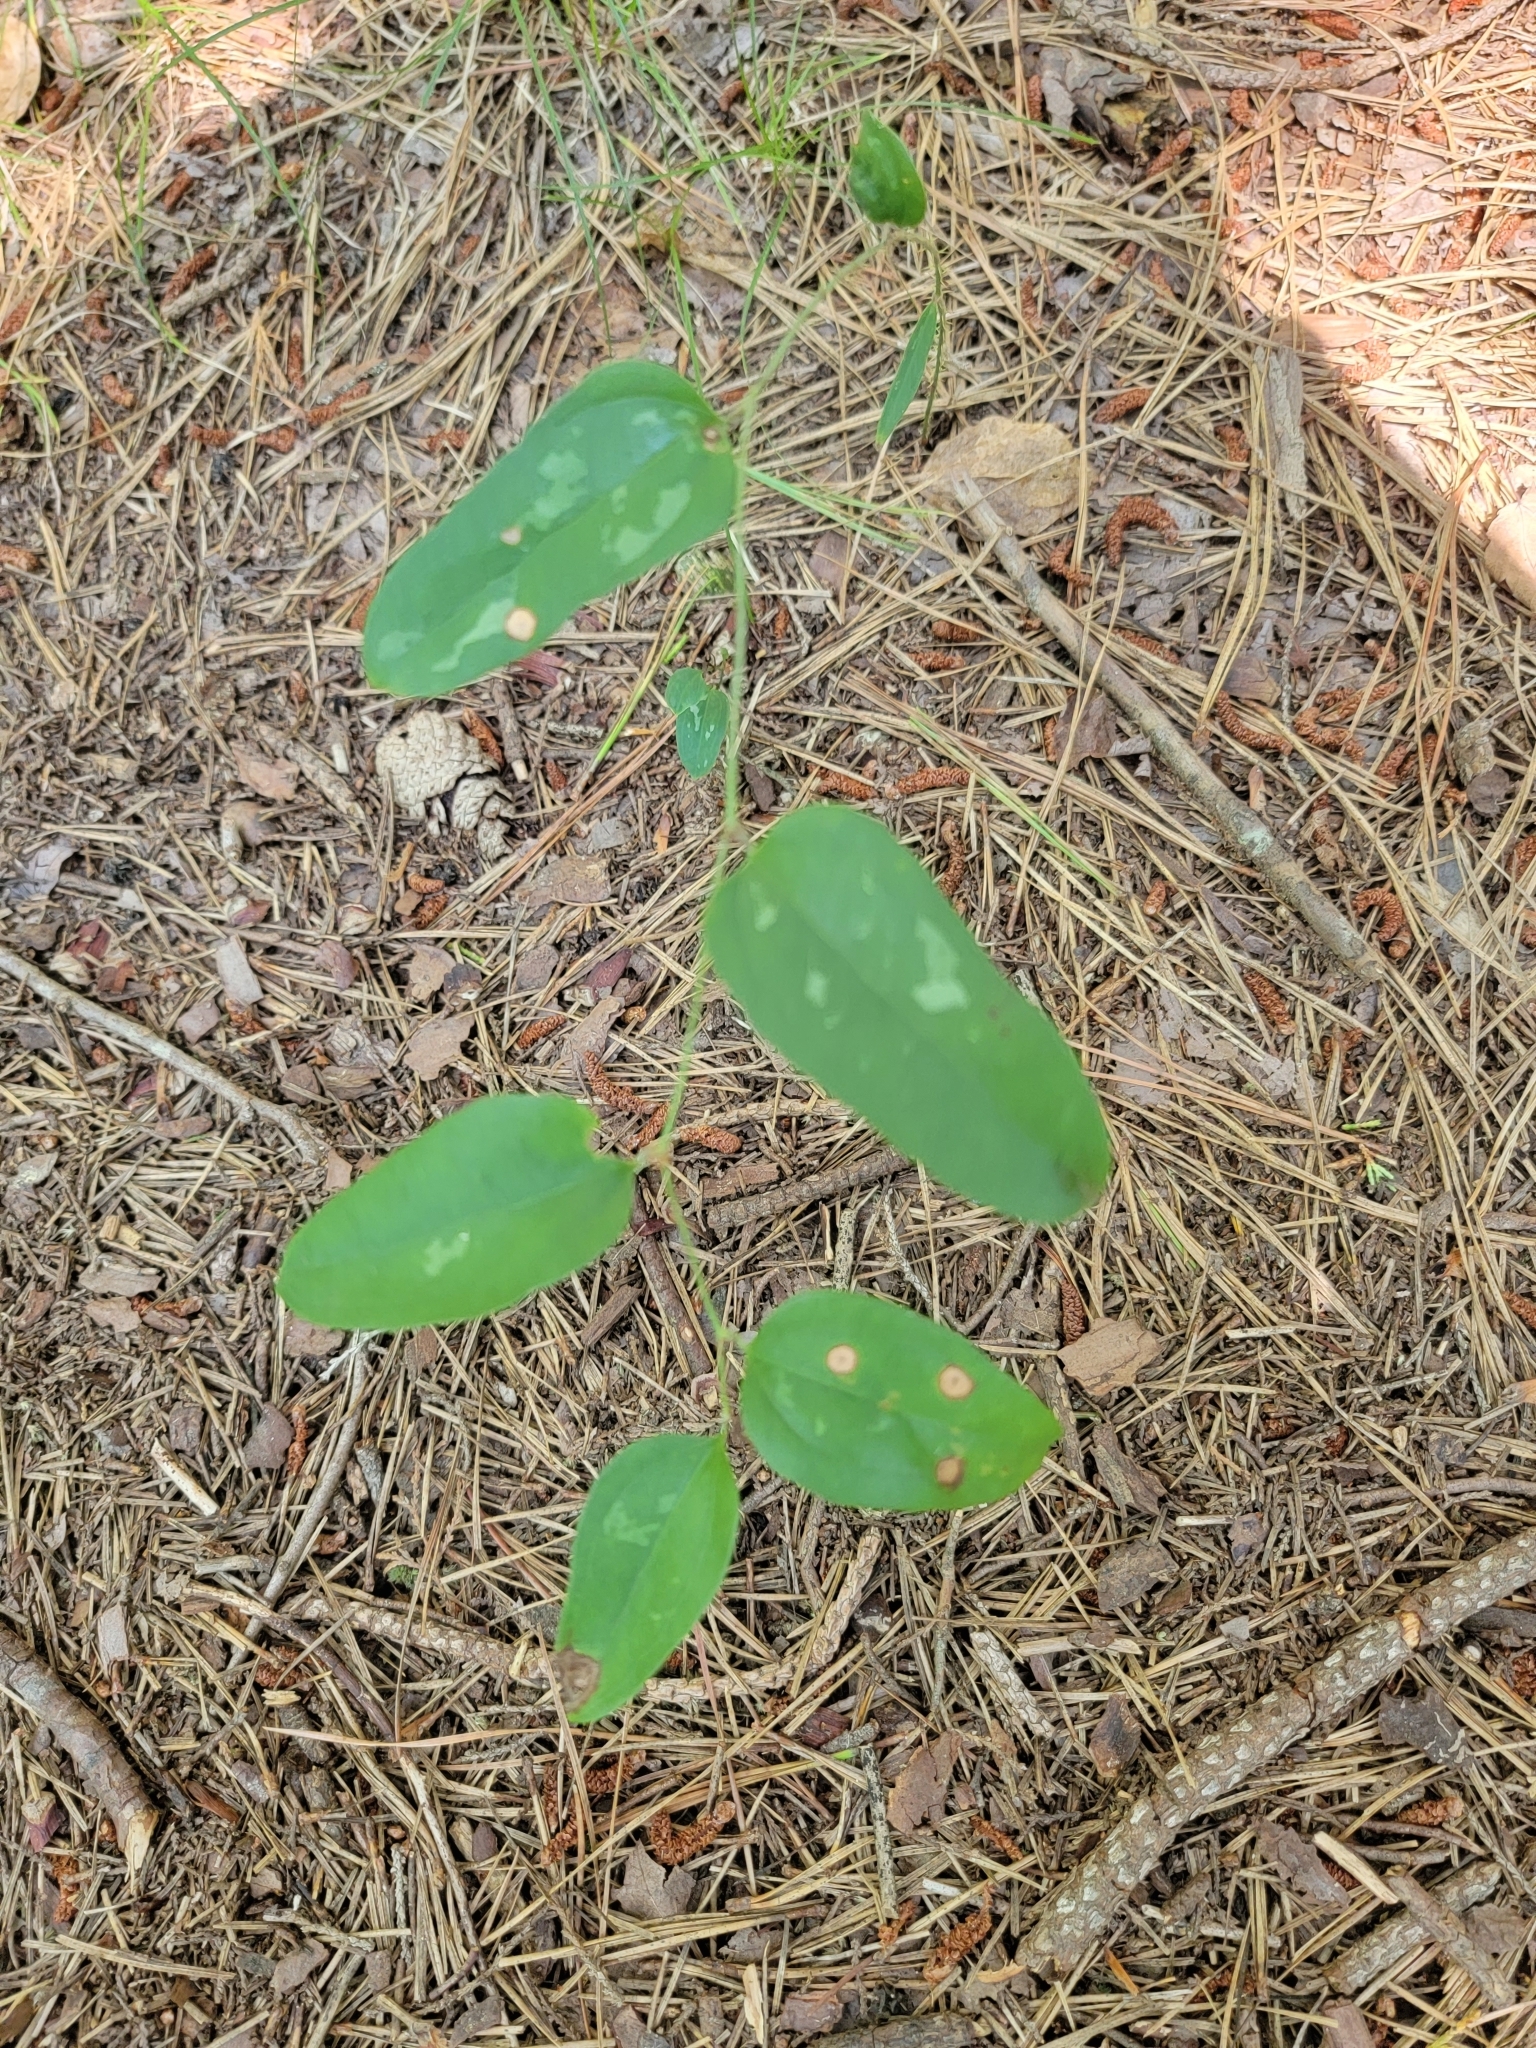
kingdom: Plantae
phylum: Tracheophyta
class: Liliopsida
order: Liliales
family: Smilacaceae
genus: Smilax
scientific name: Smilax glauca
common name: Cat greenbrier
